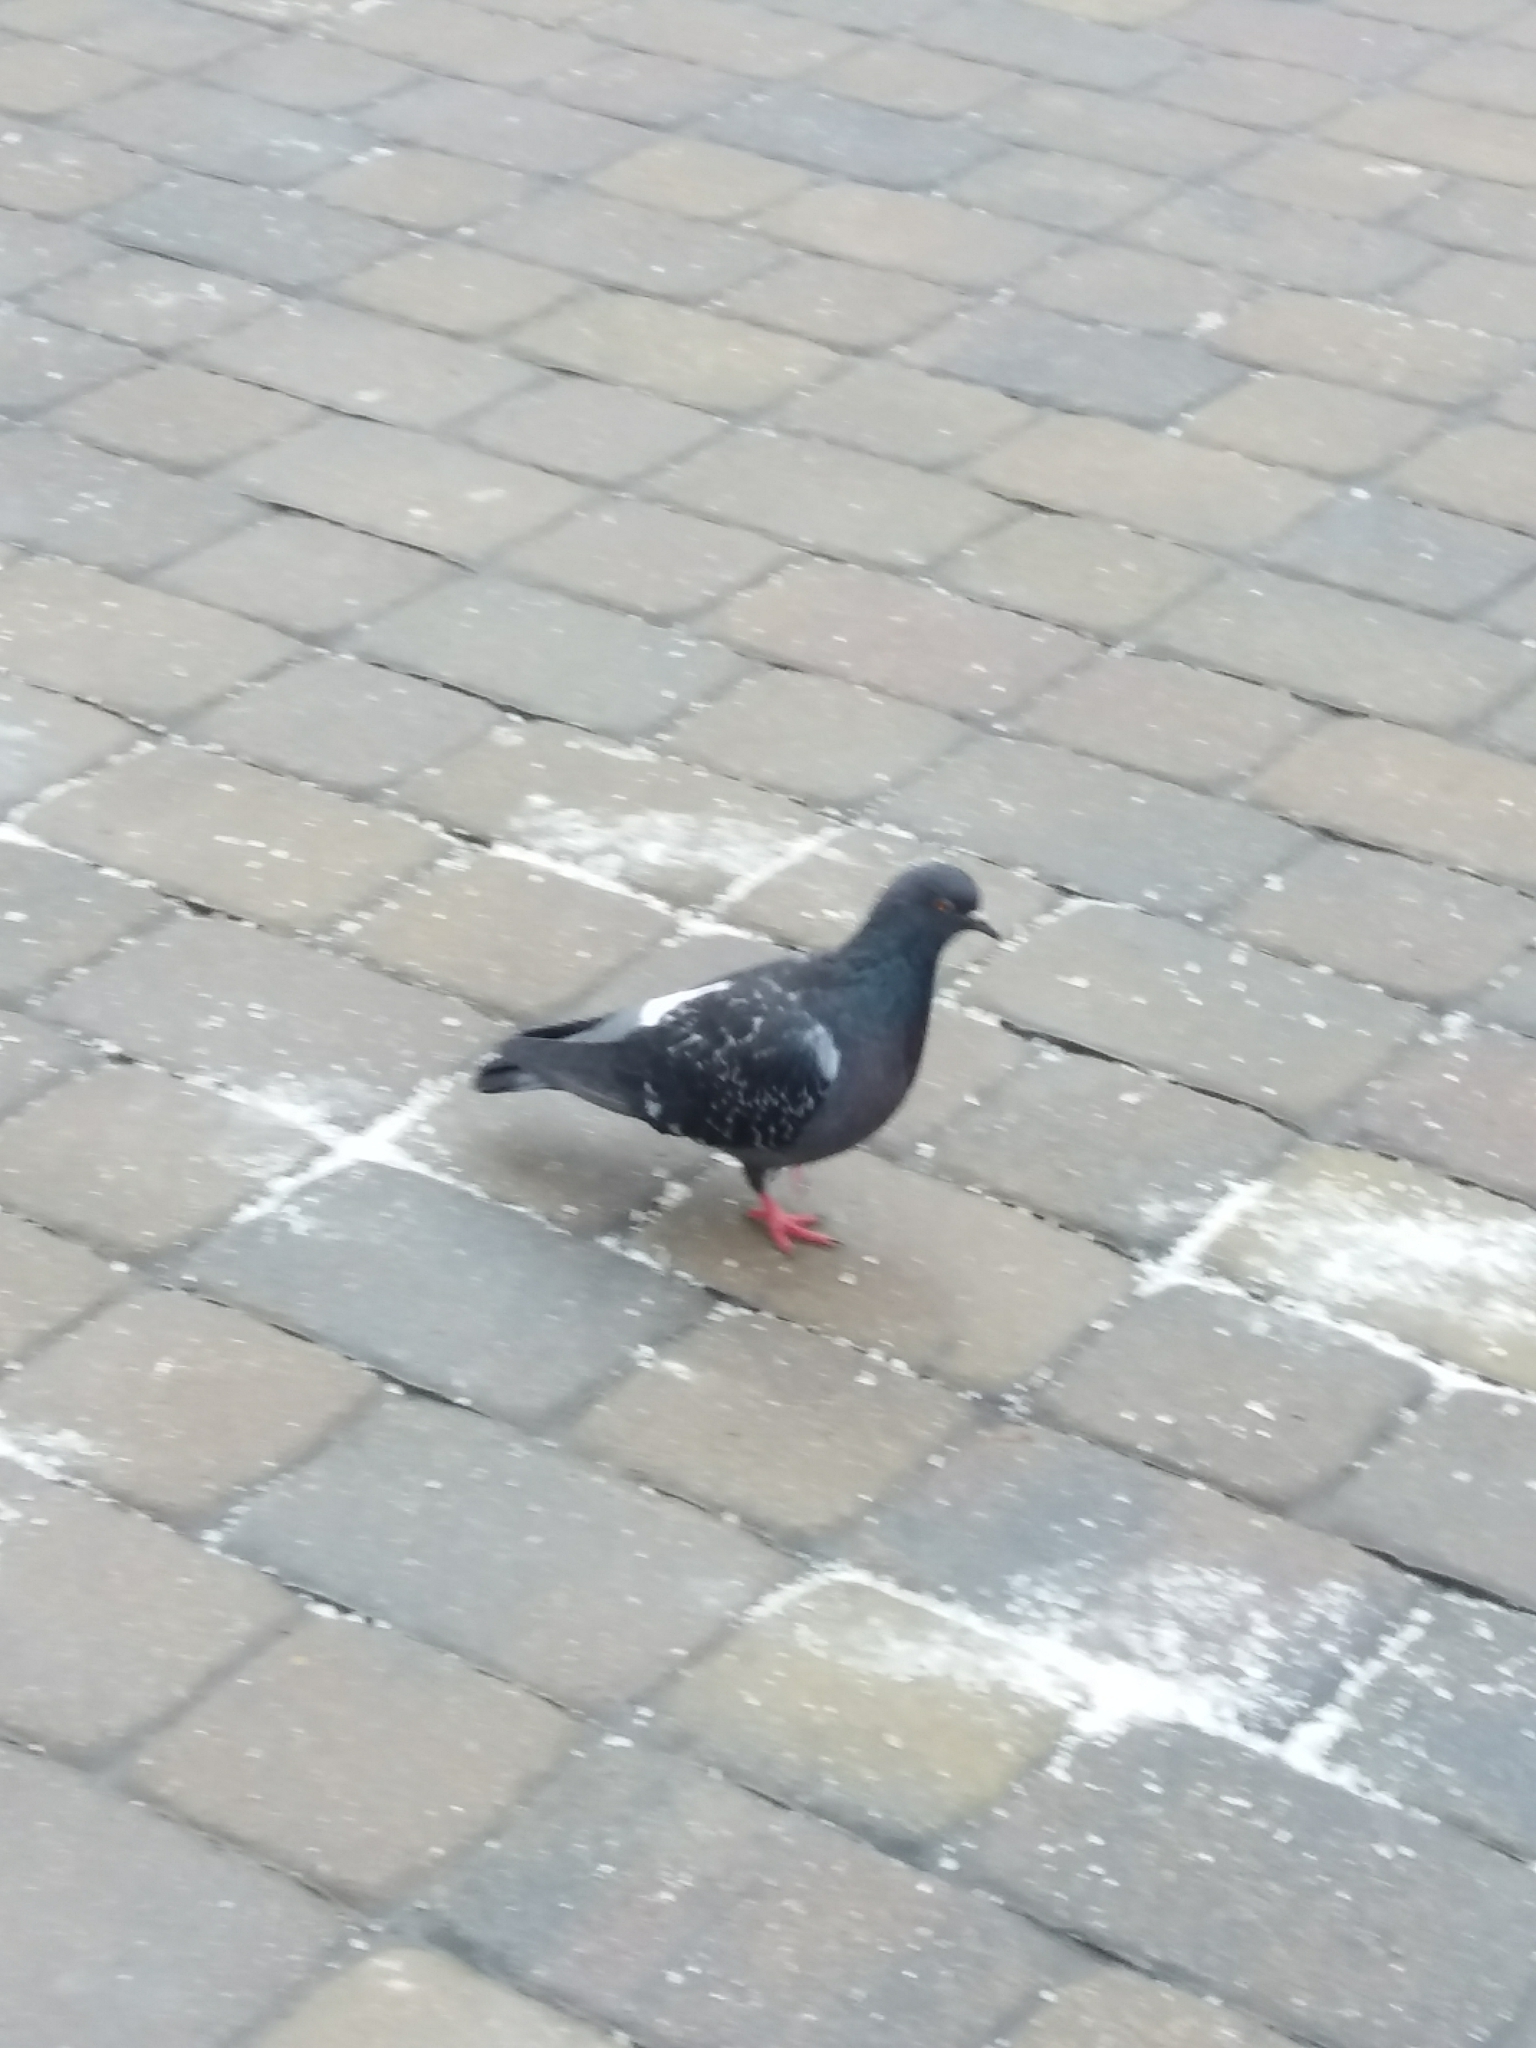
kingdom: Animalia
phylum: Chordata
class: Aves
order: Columbiformes
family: Columbidae
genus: Columba
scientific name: Columba livia
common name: Rock pigeon
